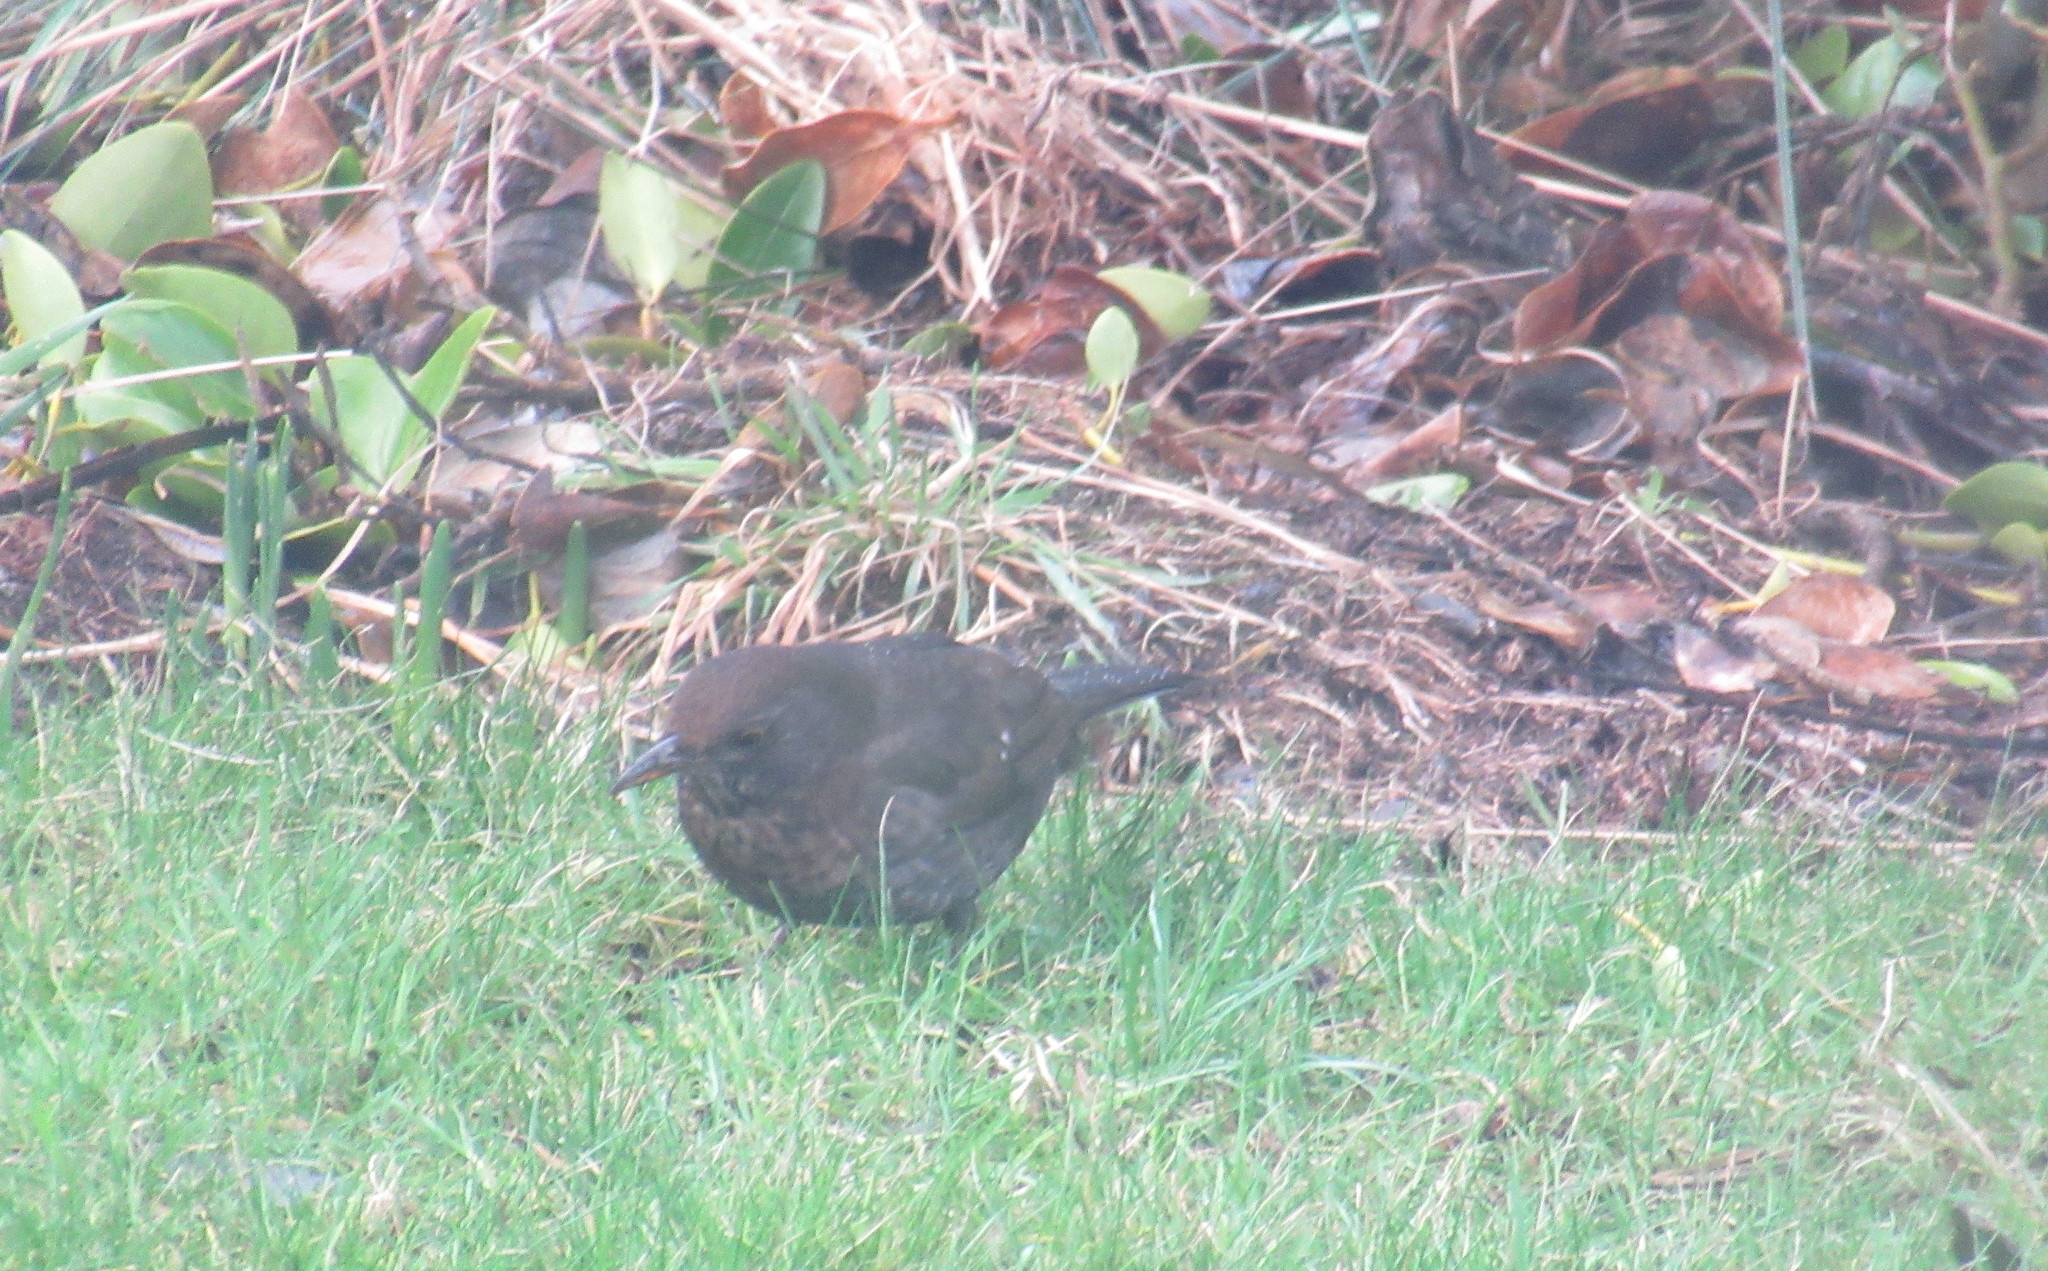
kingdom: Animalia
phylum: Chordata
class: Aves
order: Passeriformes
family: Turdidae
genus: Turdus
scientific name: Turdus merula
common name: Common blackbird
